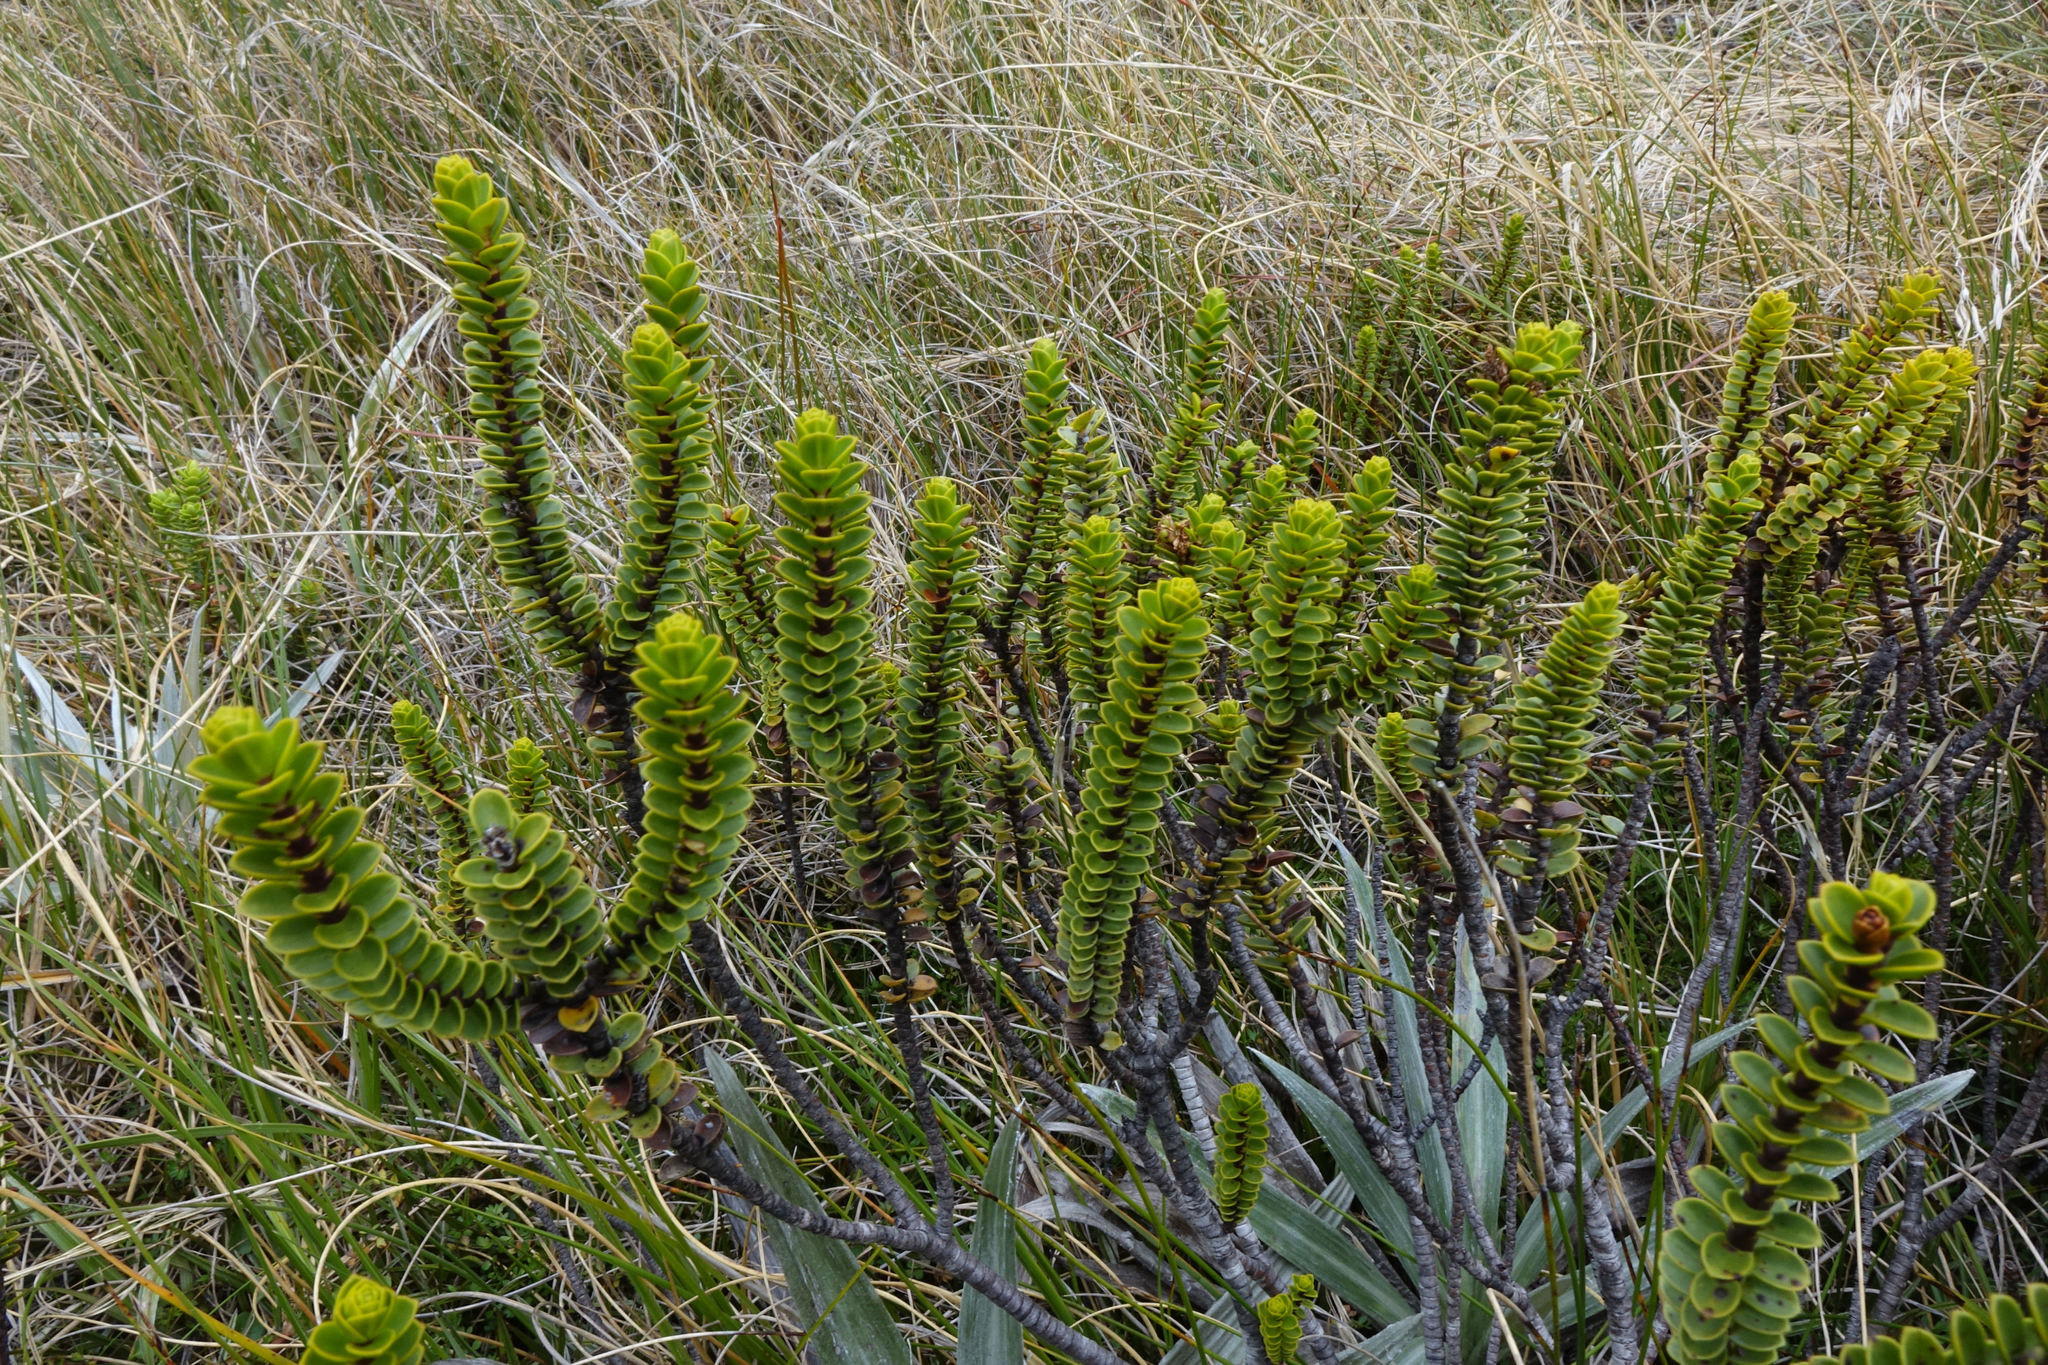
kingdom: Plantae
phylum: Tracheophyta
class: Magnoliopsida
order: Lamiales
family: Plantaginaceae
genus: Veronica
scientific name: Veronica pauciramosa
